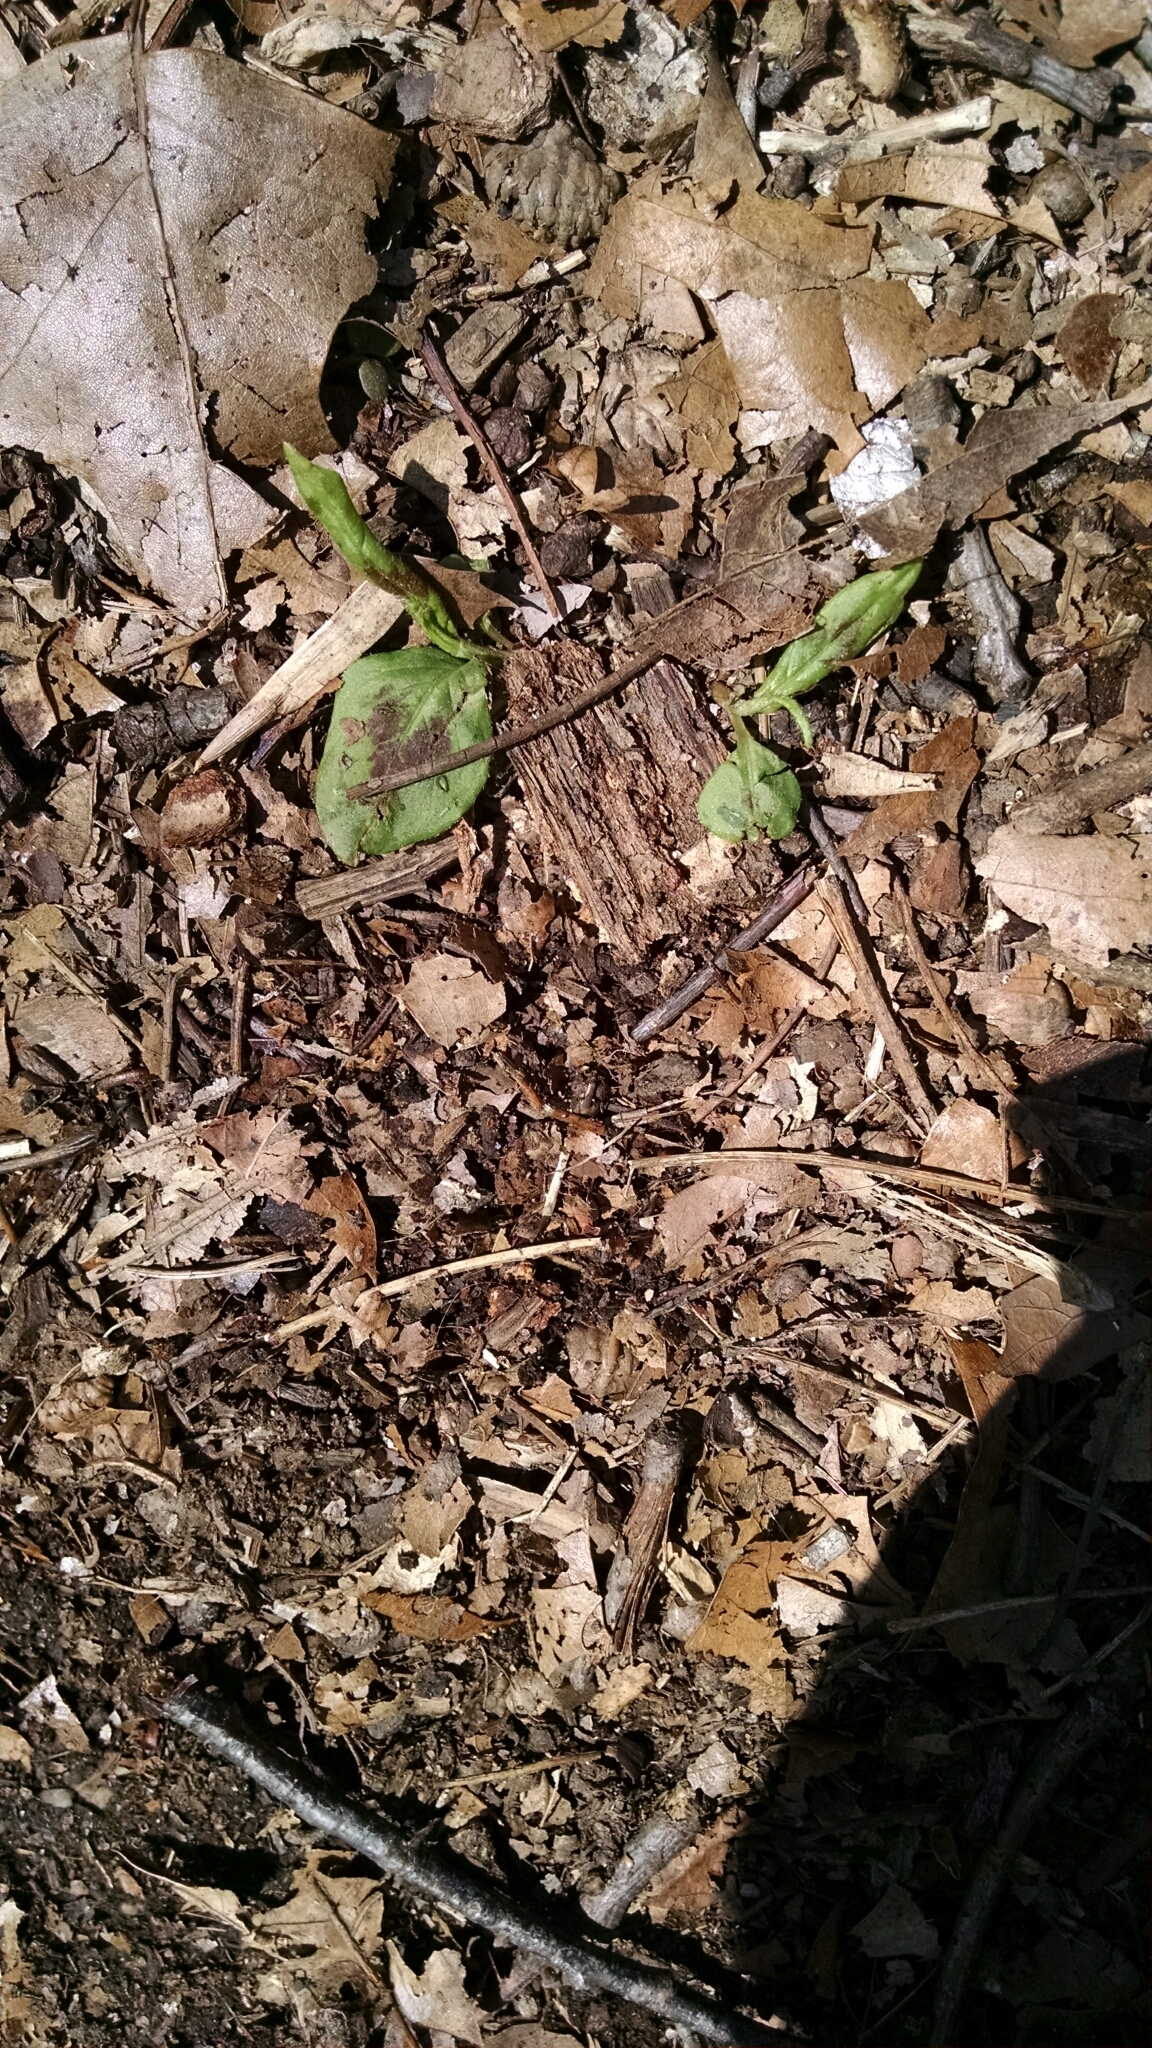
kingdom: Plantae
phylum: Tracheophyta
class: Magnoliopsida
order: Caryophyllales
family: Polygonaceae
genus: Persicaria
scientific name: Persicaria virginiana
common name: Jumpseed
